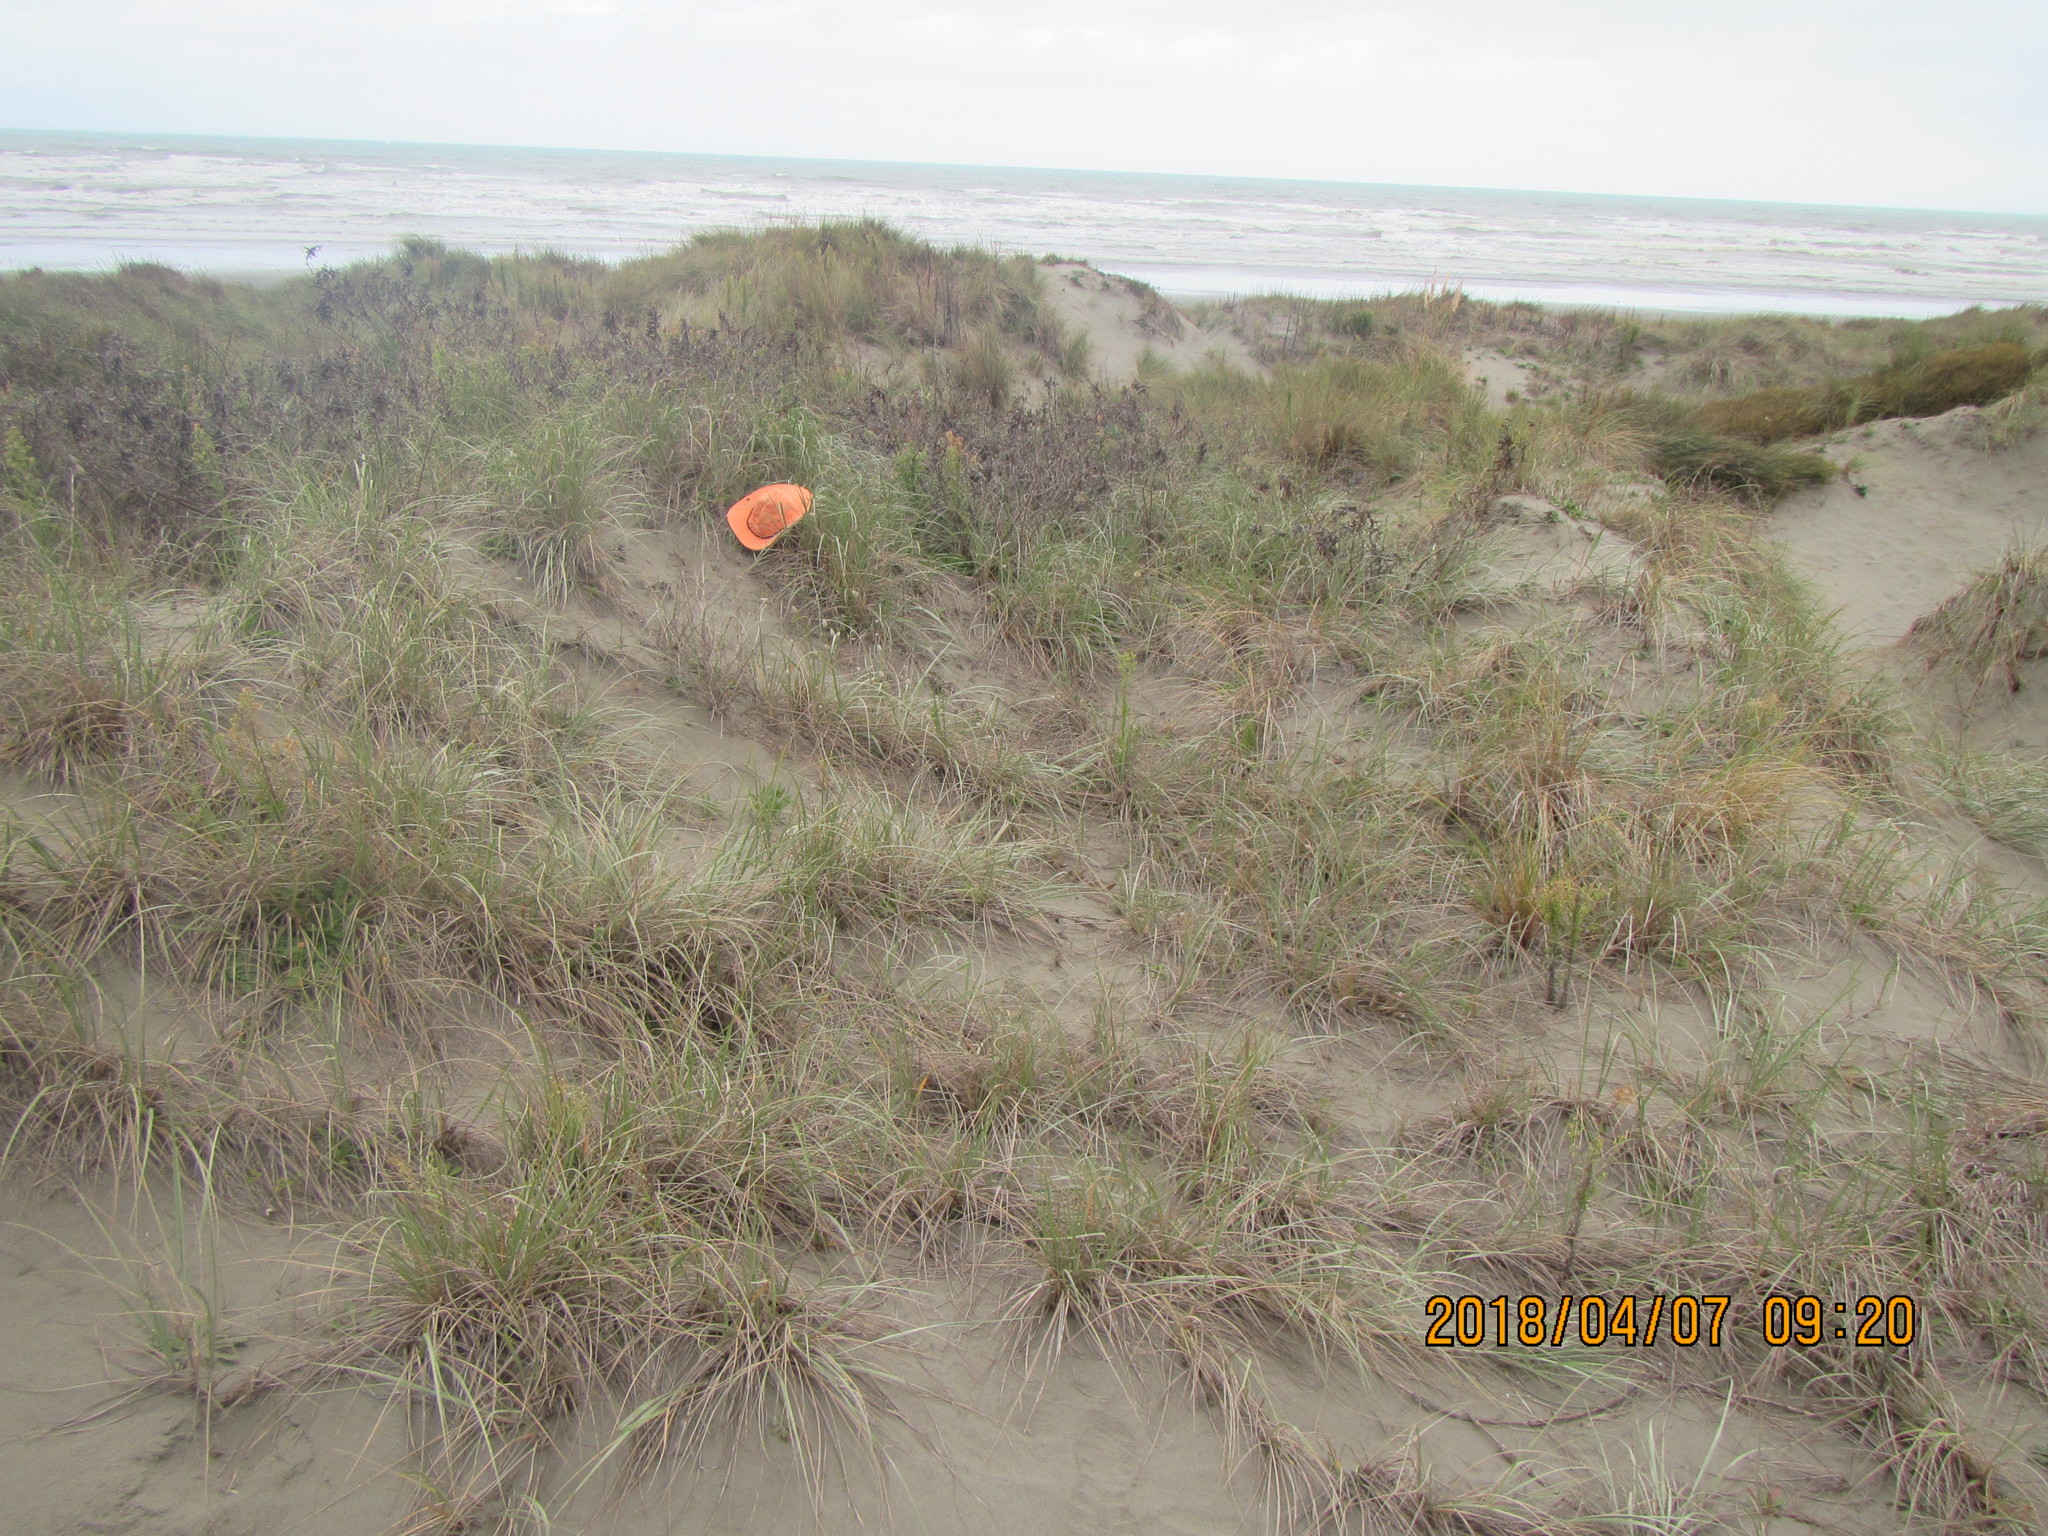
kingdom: Animalia
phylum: Arthropoda
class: Arachnida
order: Opiliones
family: Phalangiidae
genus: Phalangium
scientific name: Phalangium opilio
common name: Daddy longleg
